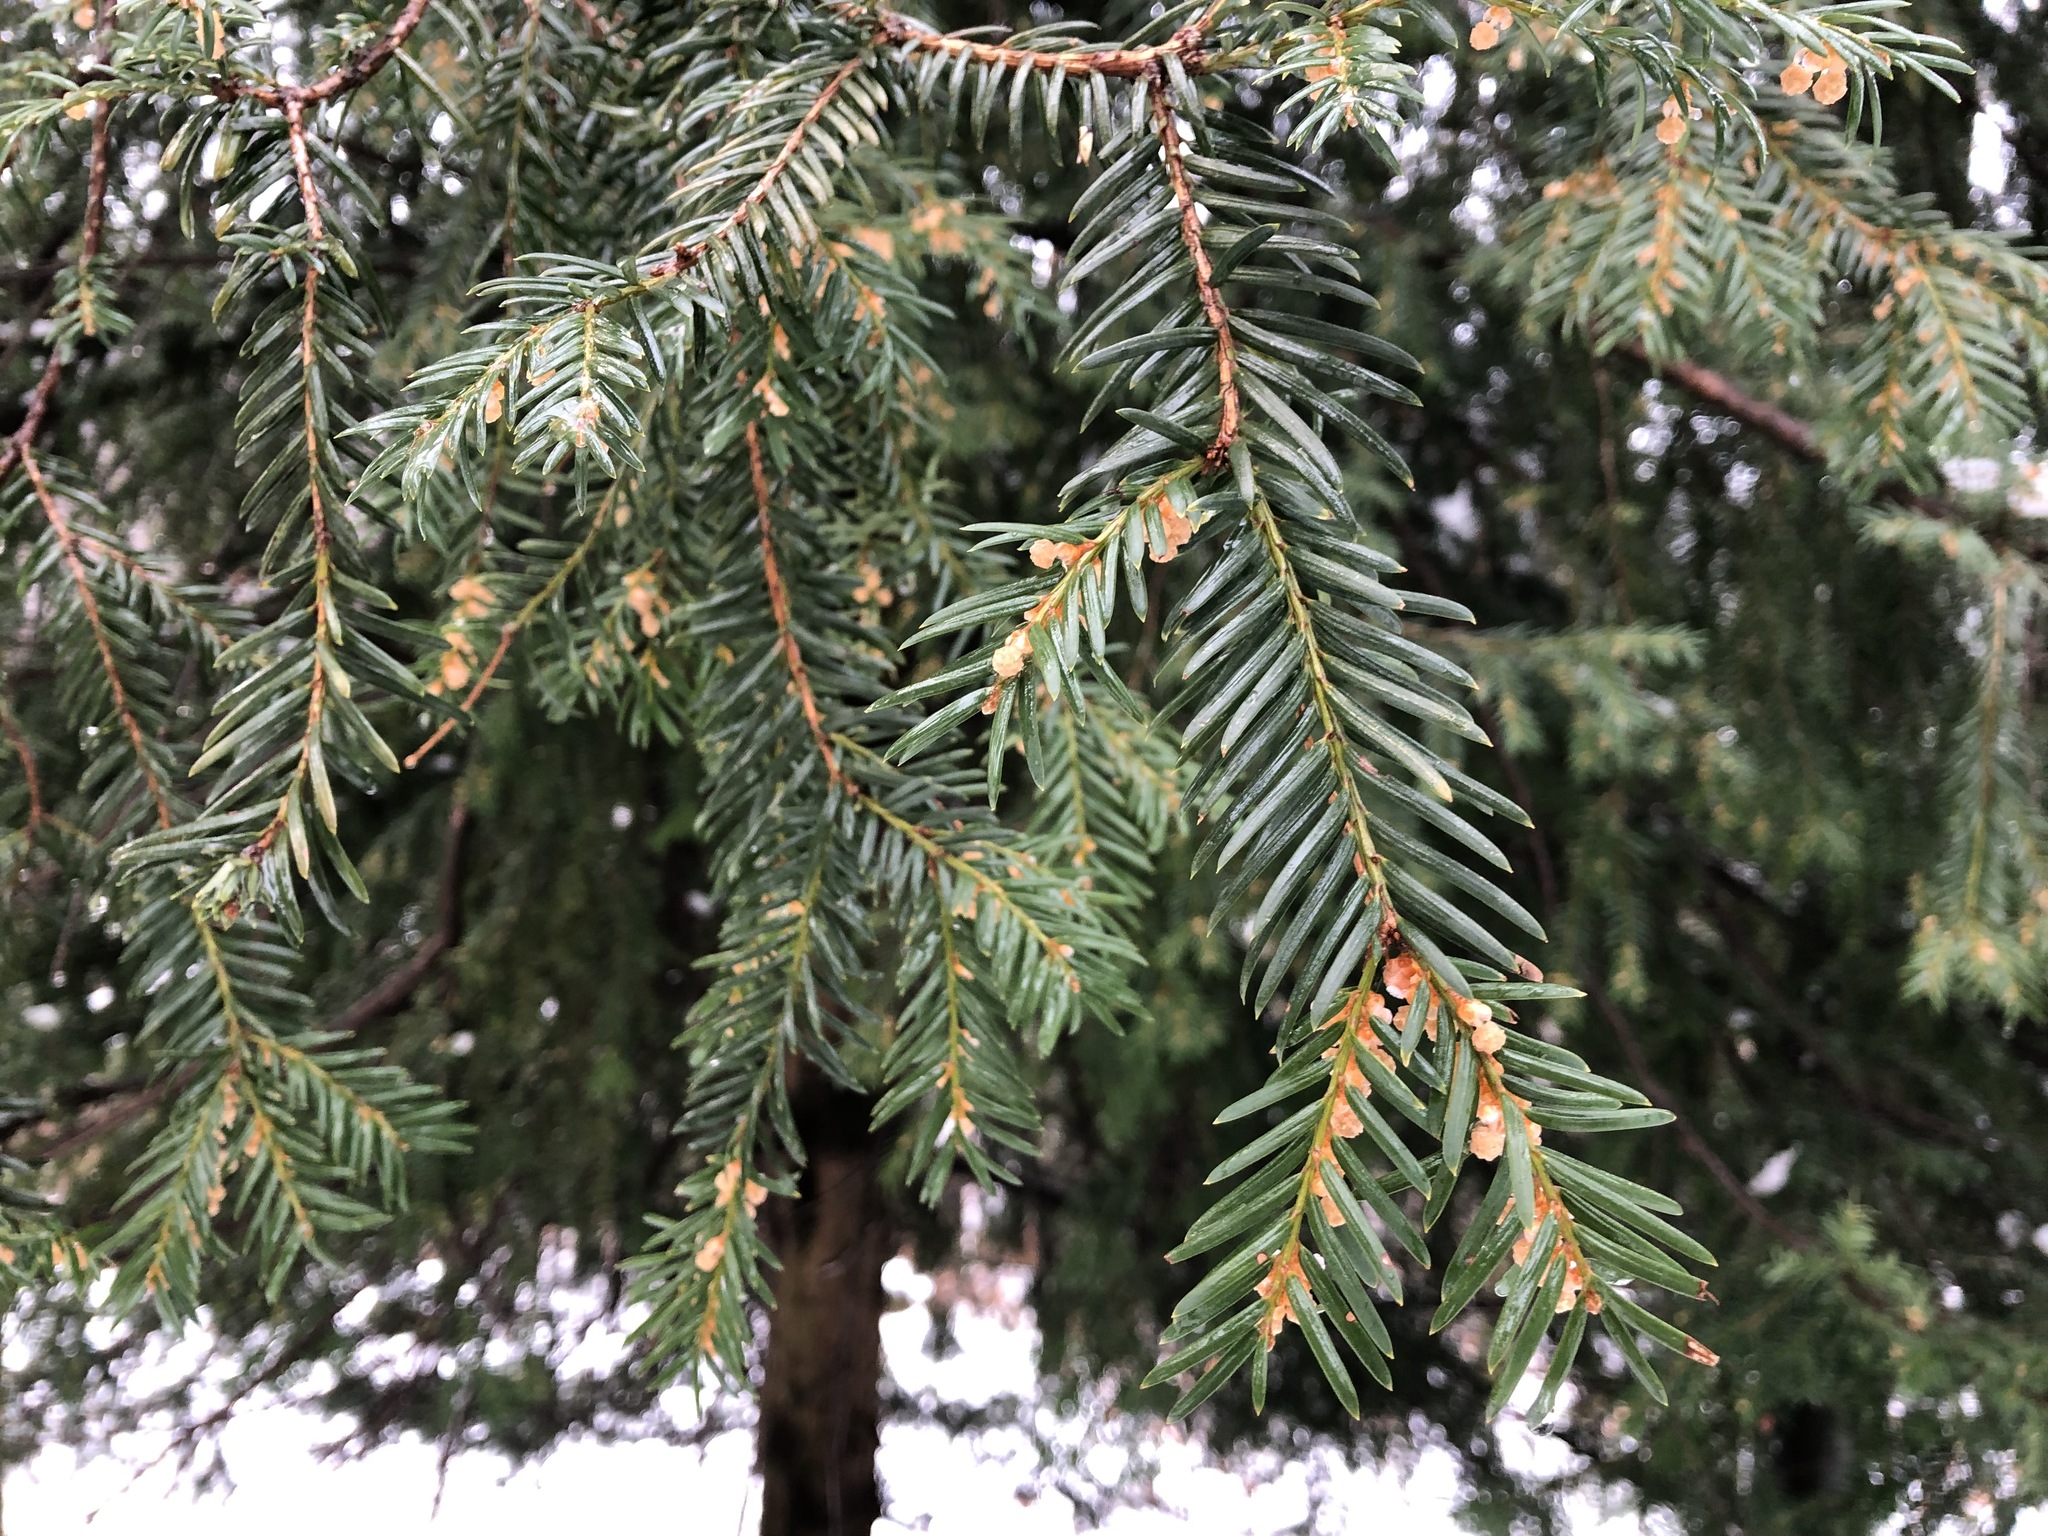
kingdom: Plantae
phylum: Tracheophyta
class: Pinopsida
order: Pinales
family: Taxaceae
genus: Taxus
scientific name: Taxus baccata
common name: Yew
